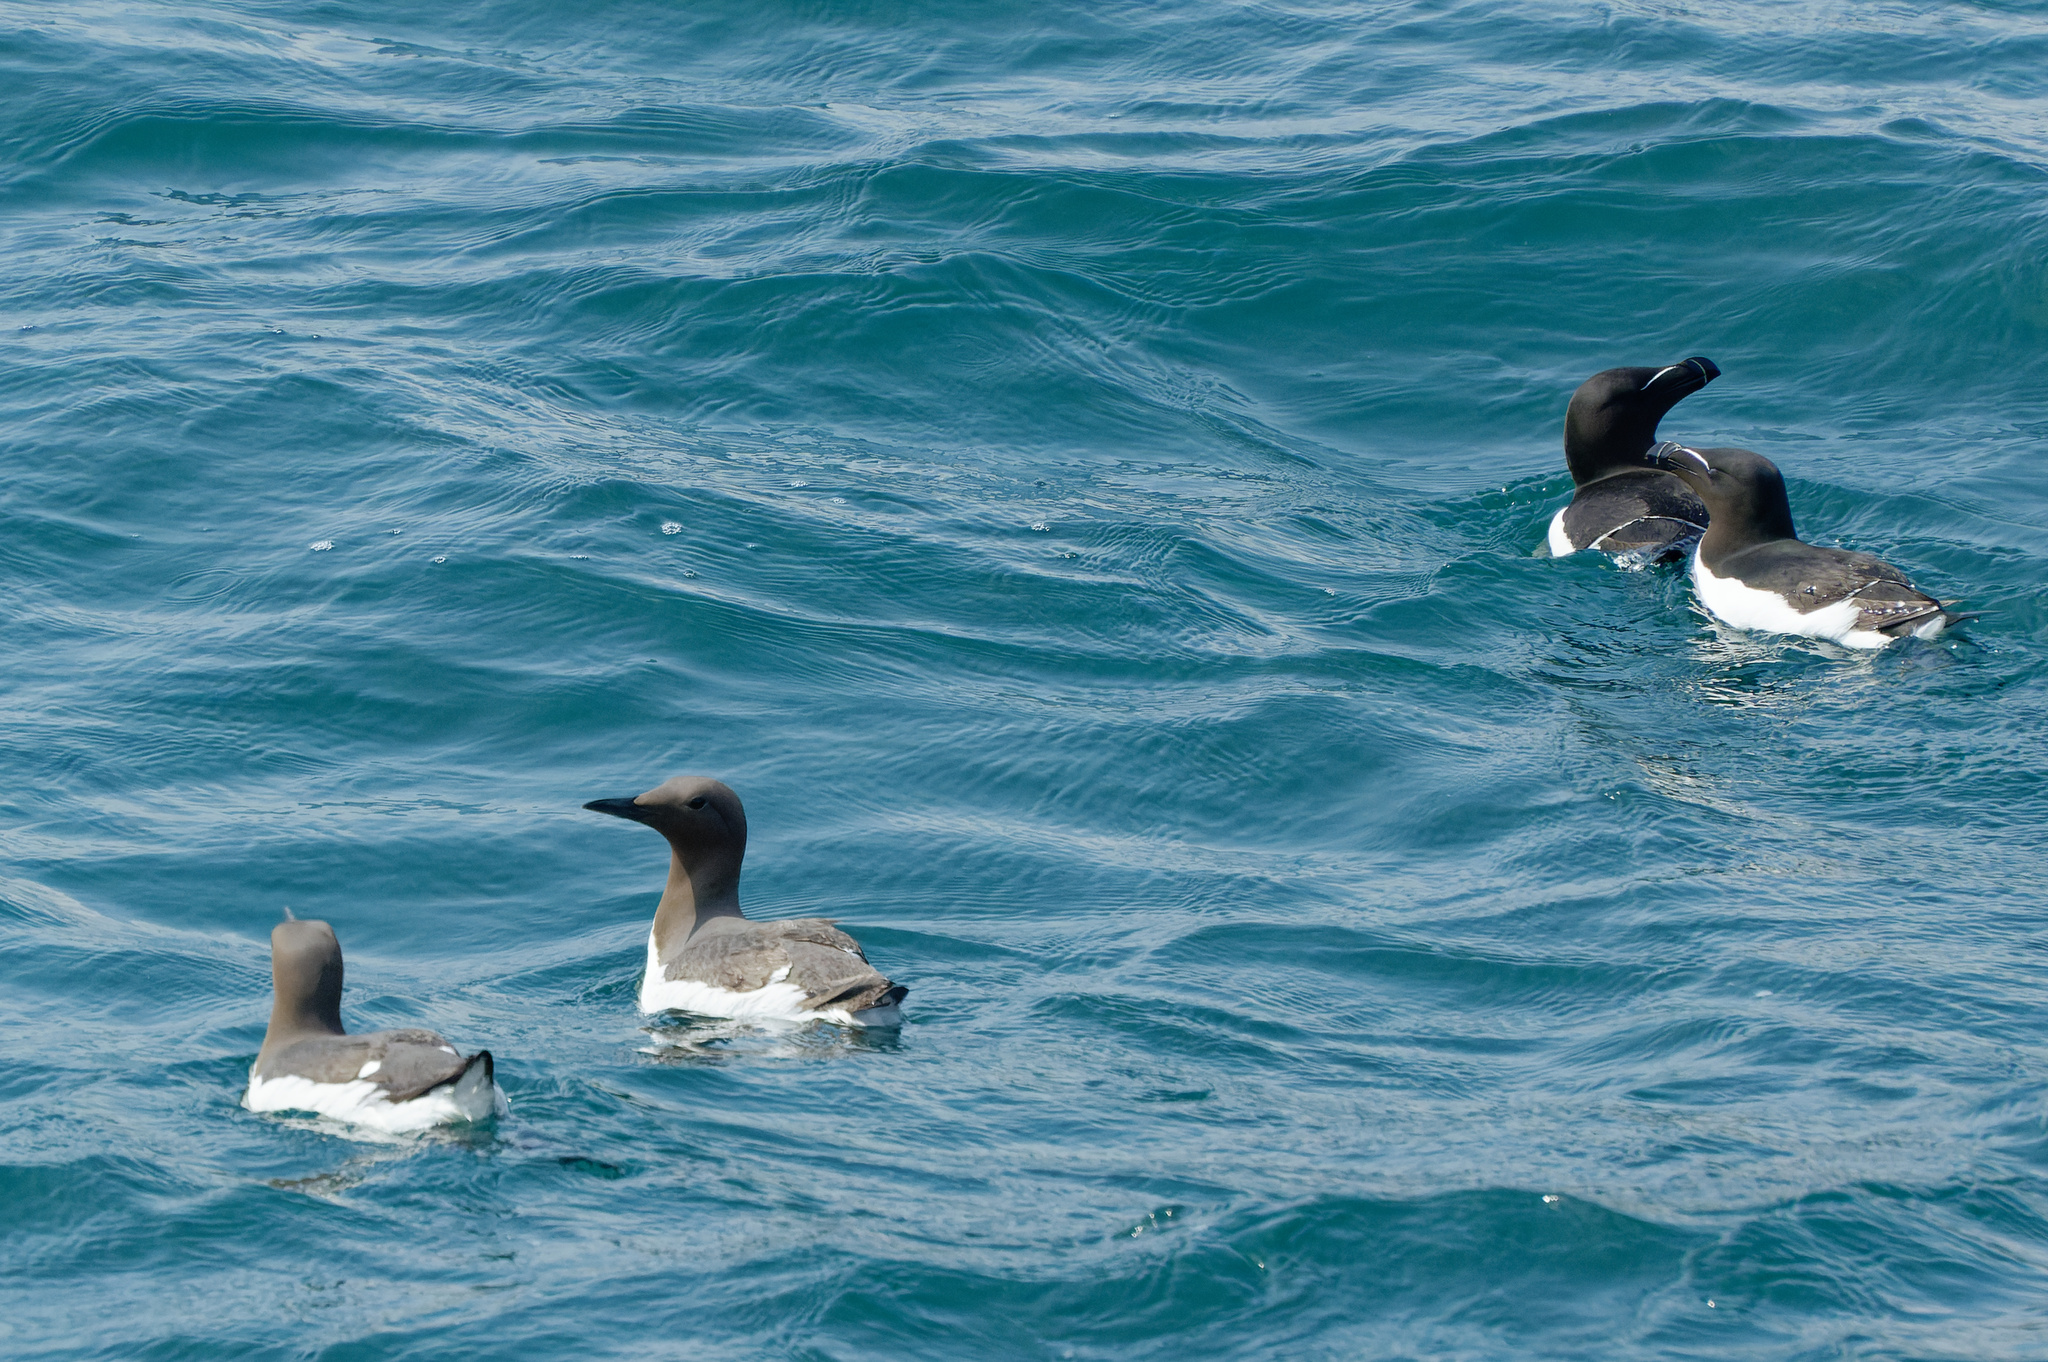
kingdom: Animalia
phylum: Chordata
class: Aves
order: Charadriiformes
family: Alcidae
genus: Uria
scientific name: Uria aalge
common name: Common murre
